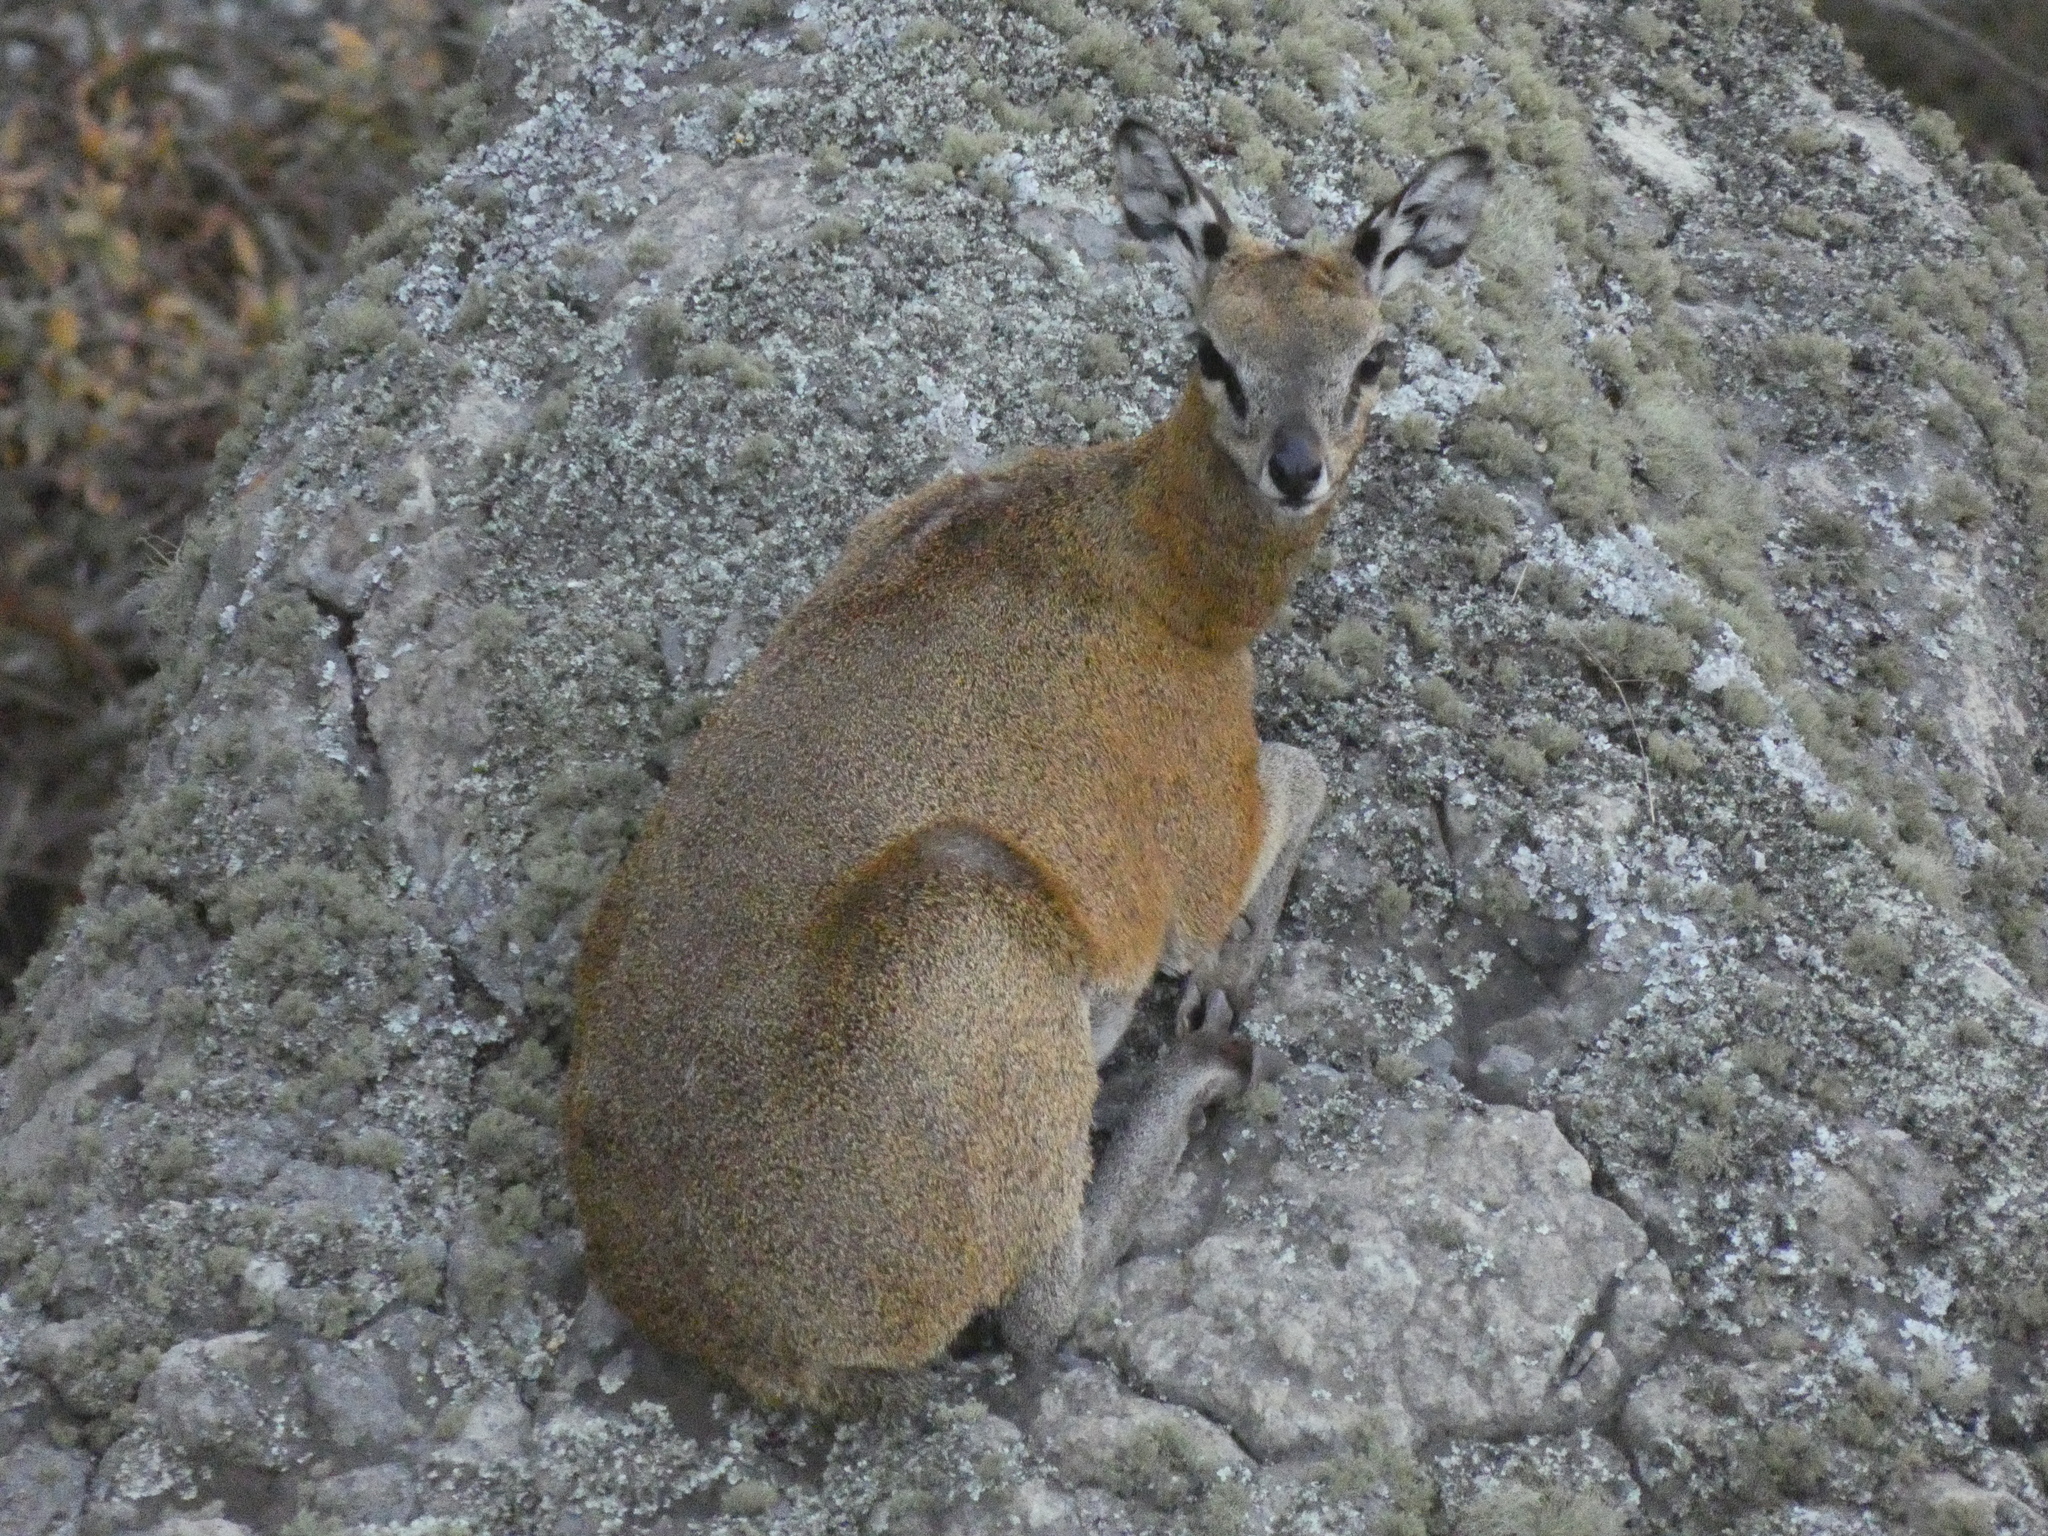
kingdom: Animalia
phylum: Chordata
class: Mammalia
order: Artiodactyla
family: Bovidae
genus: Oreotragus
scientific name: Oreotragus oreotragus
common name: Klipspringer
